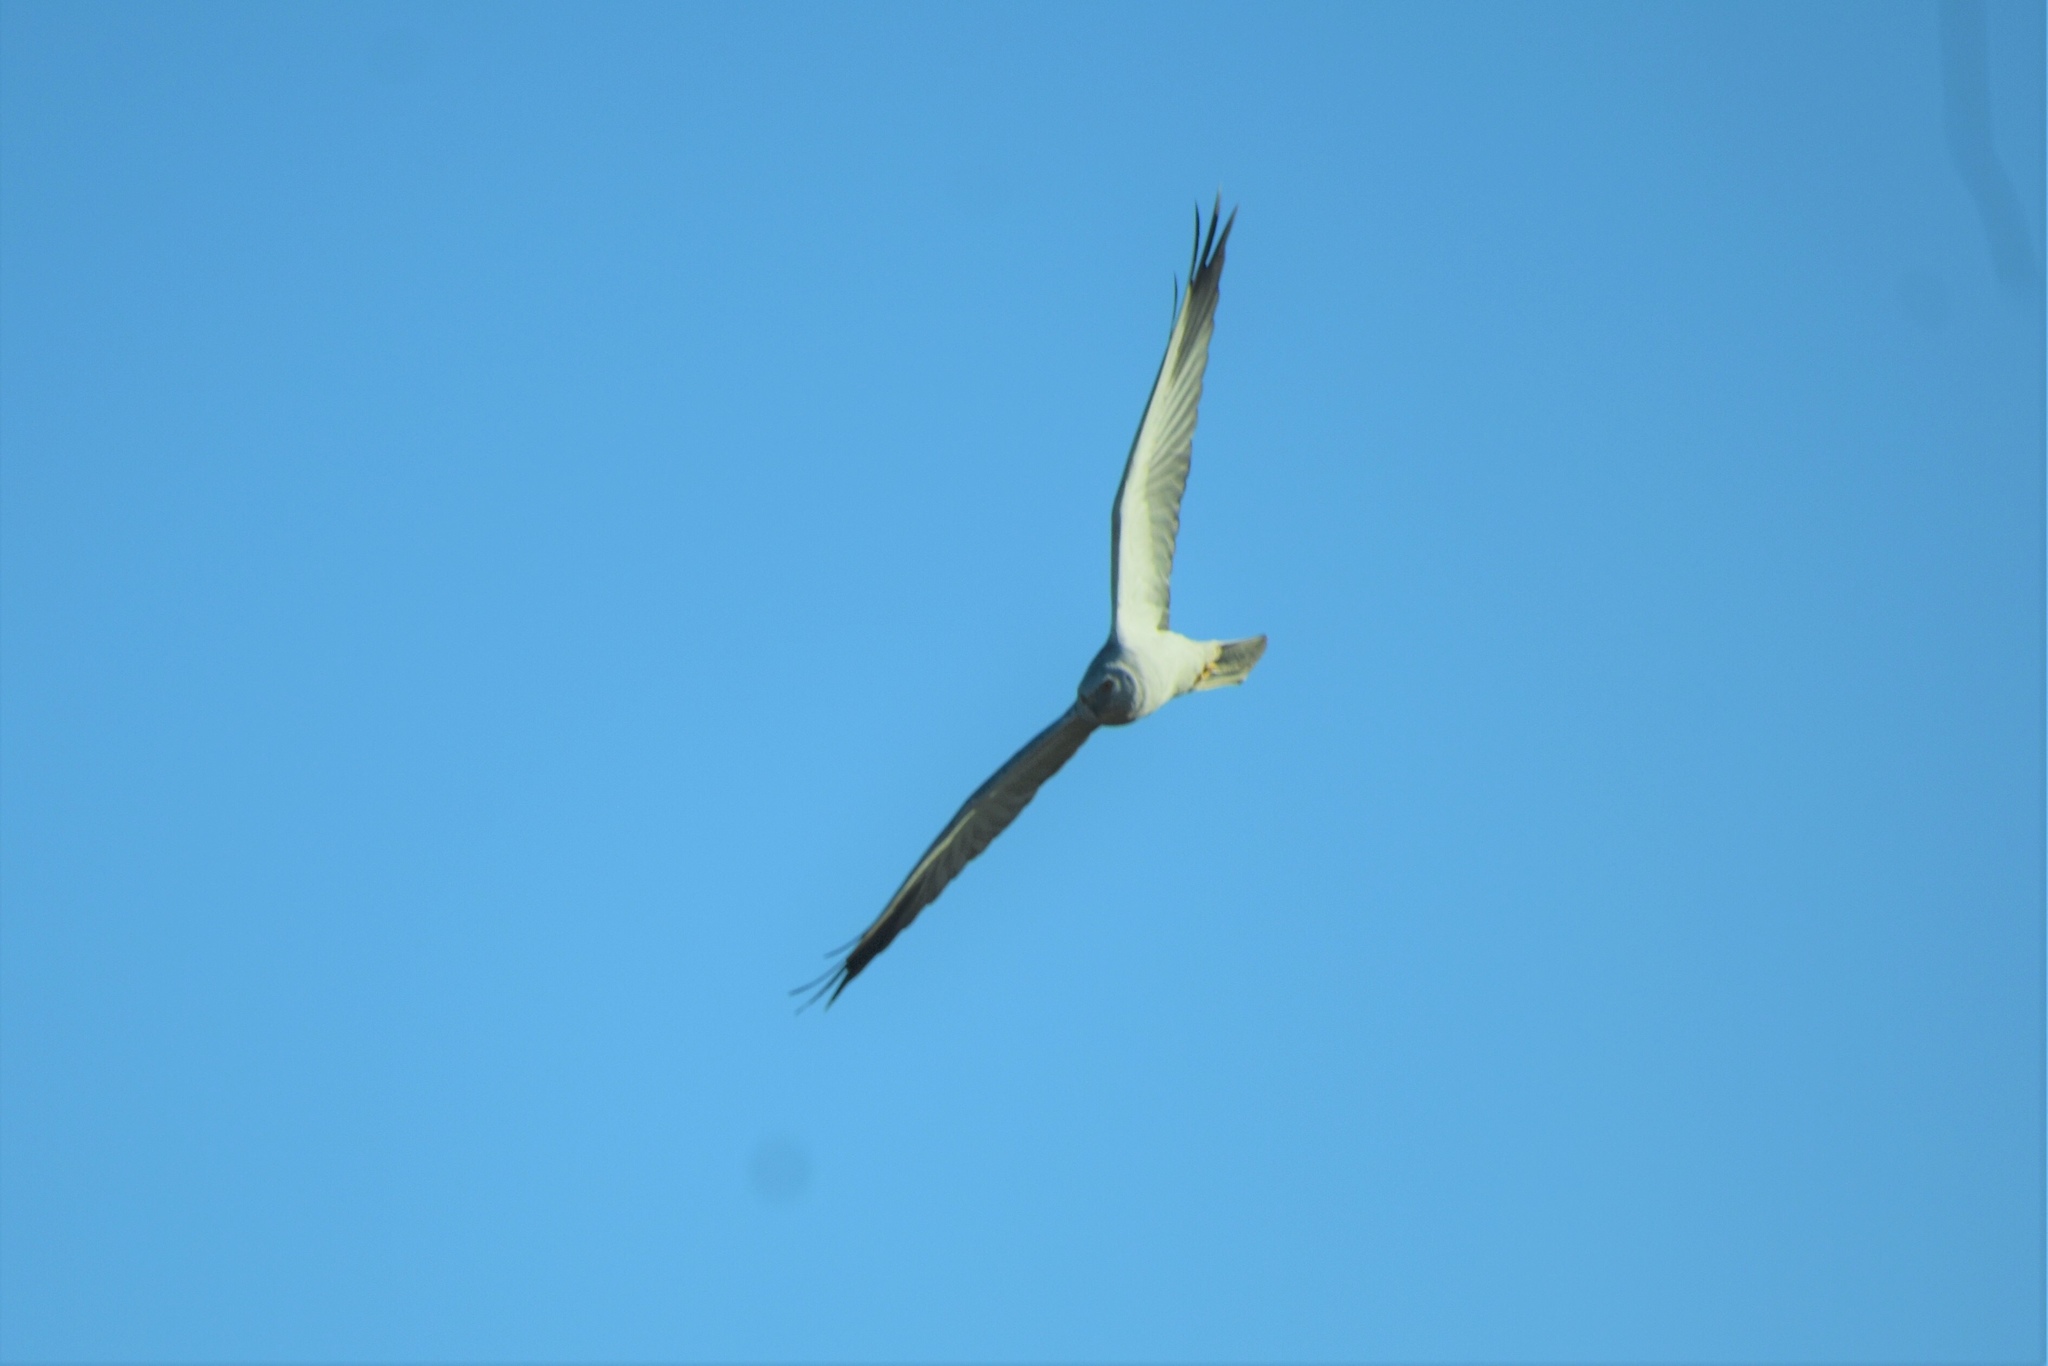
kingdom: Animalia
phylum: Chordata
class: Aves
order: Accipitriformes
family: Accipitridae
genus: Circus
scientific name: Circus macrourus
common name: Pallid harrier
